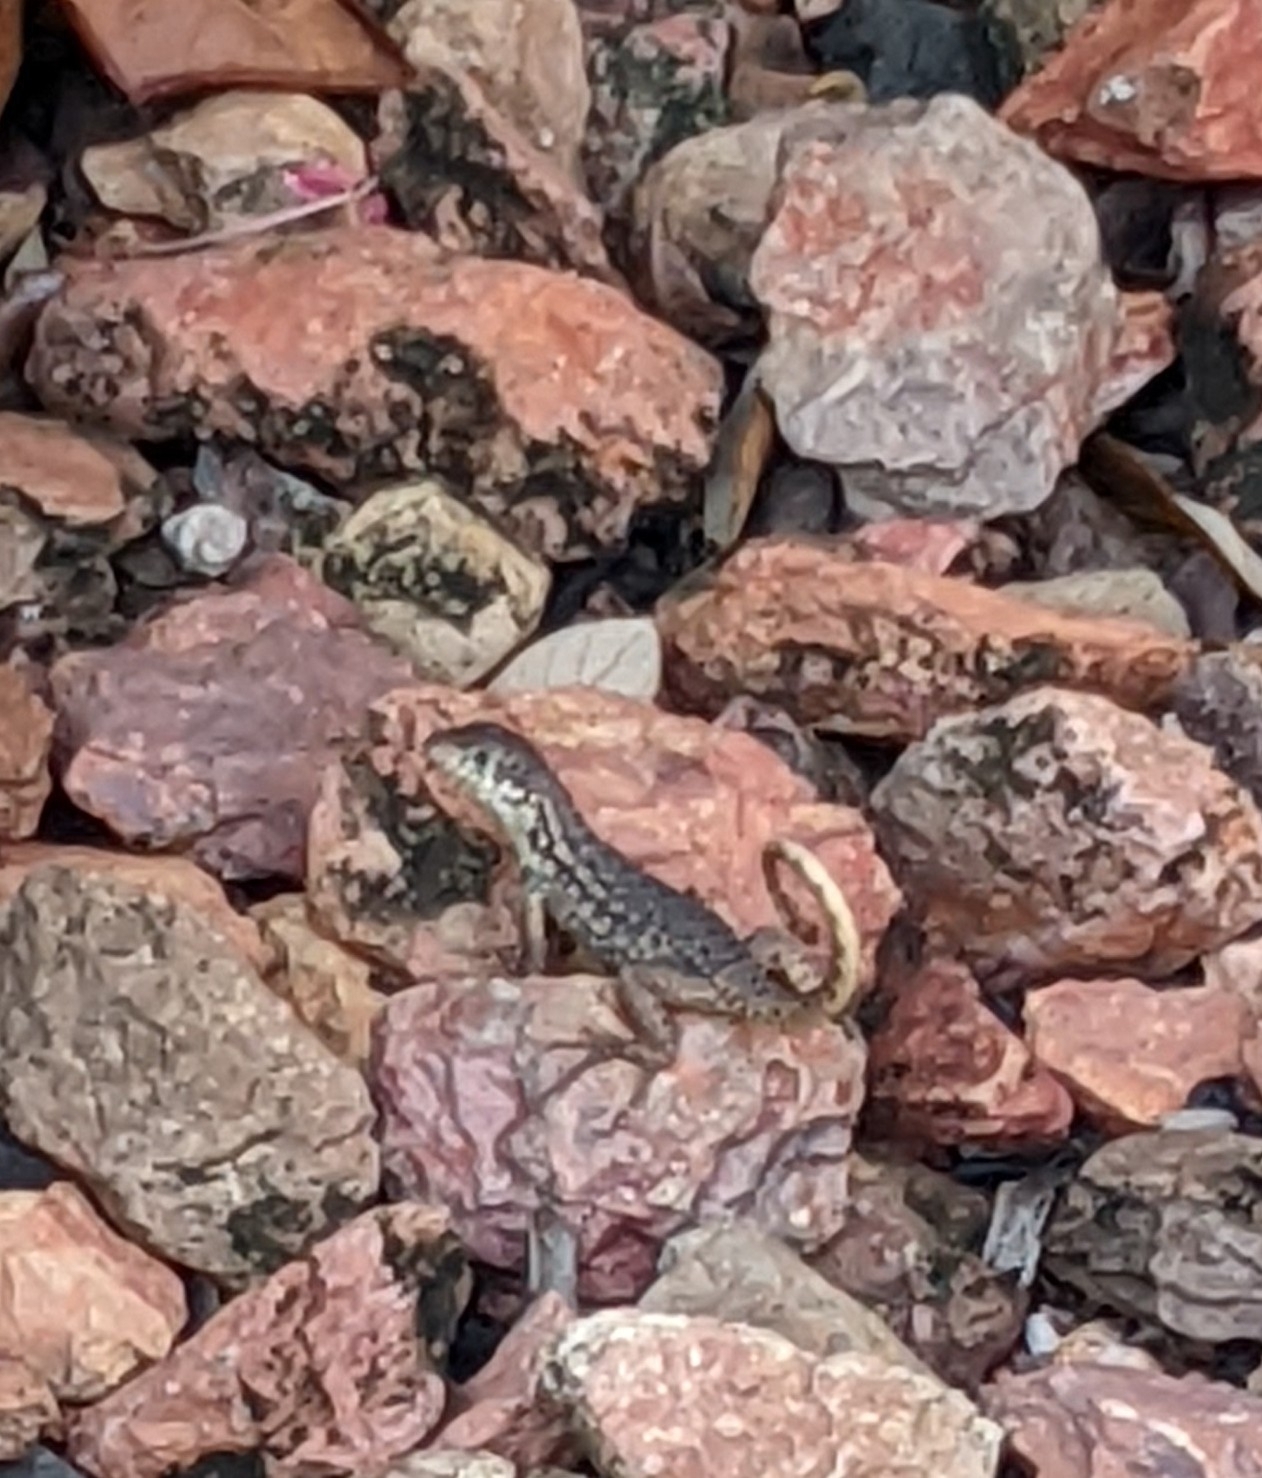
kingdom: Animalia
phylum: Chordata
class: Squamata
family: Leiocephalidae
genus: Leiocephalus
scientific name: Leiocephalus carinatus
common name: Northern curly-tailed lizard
